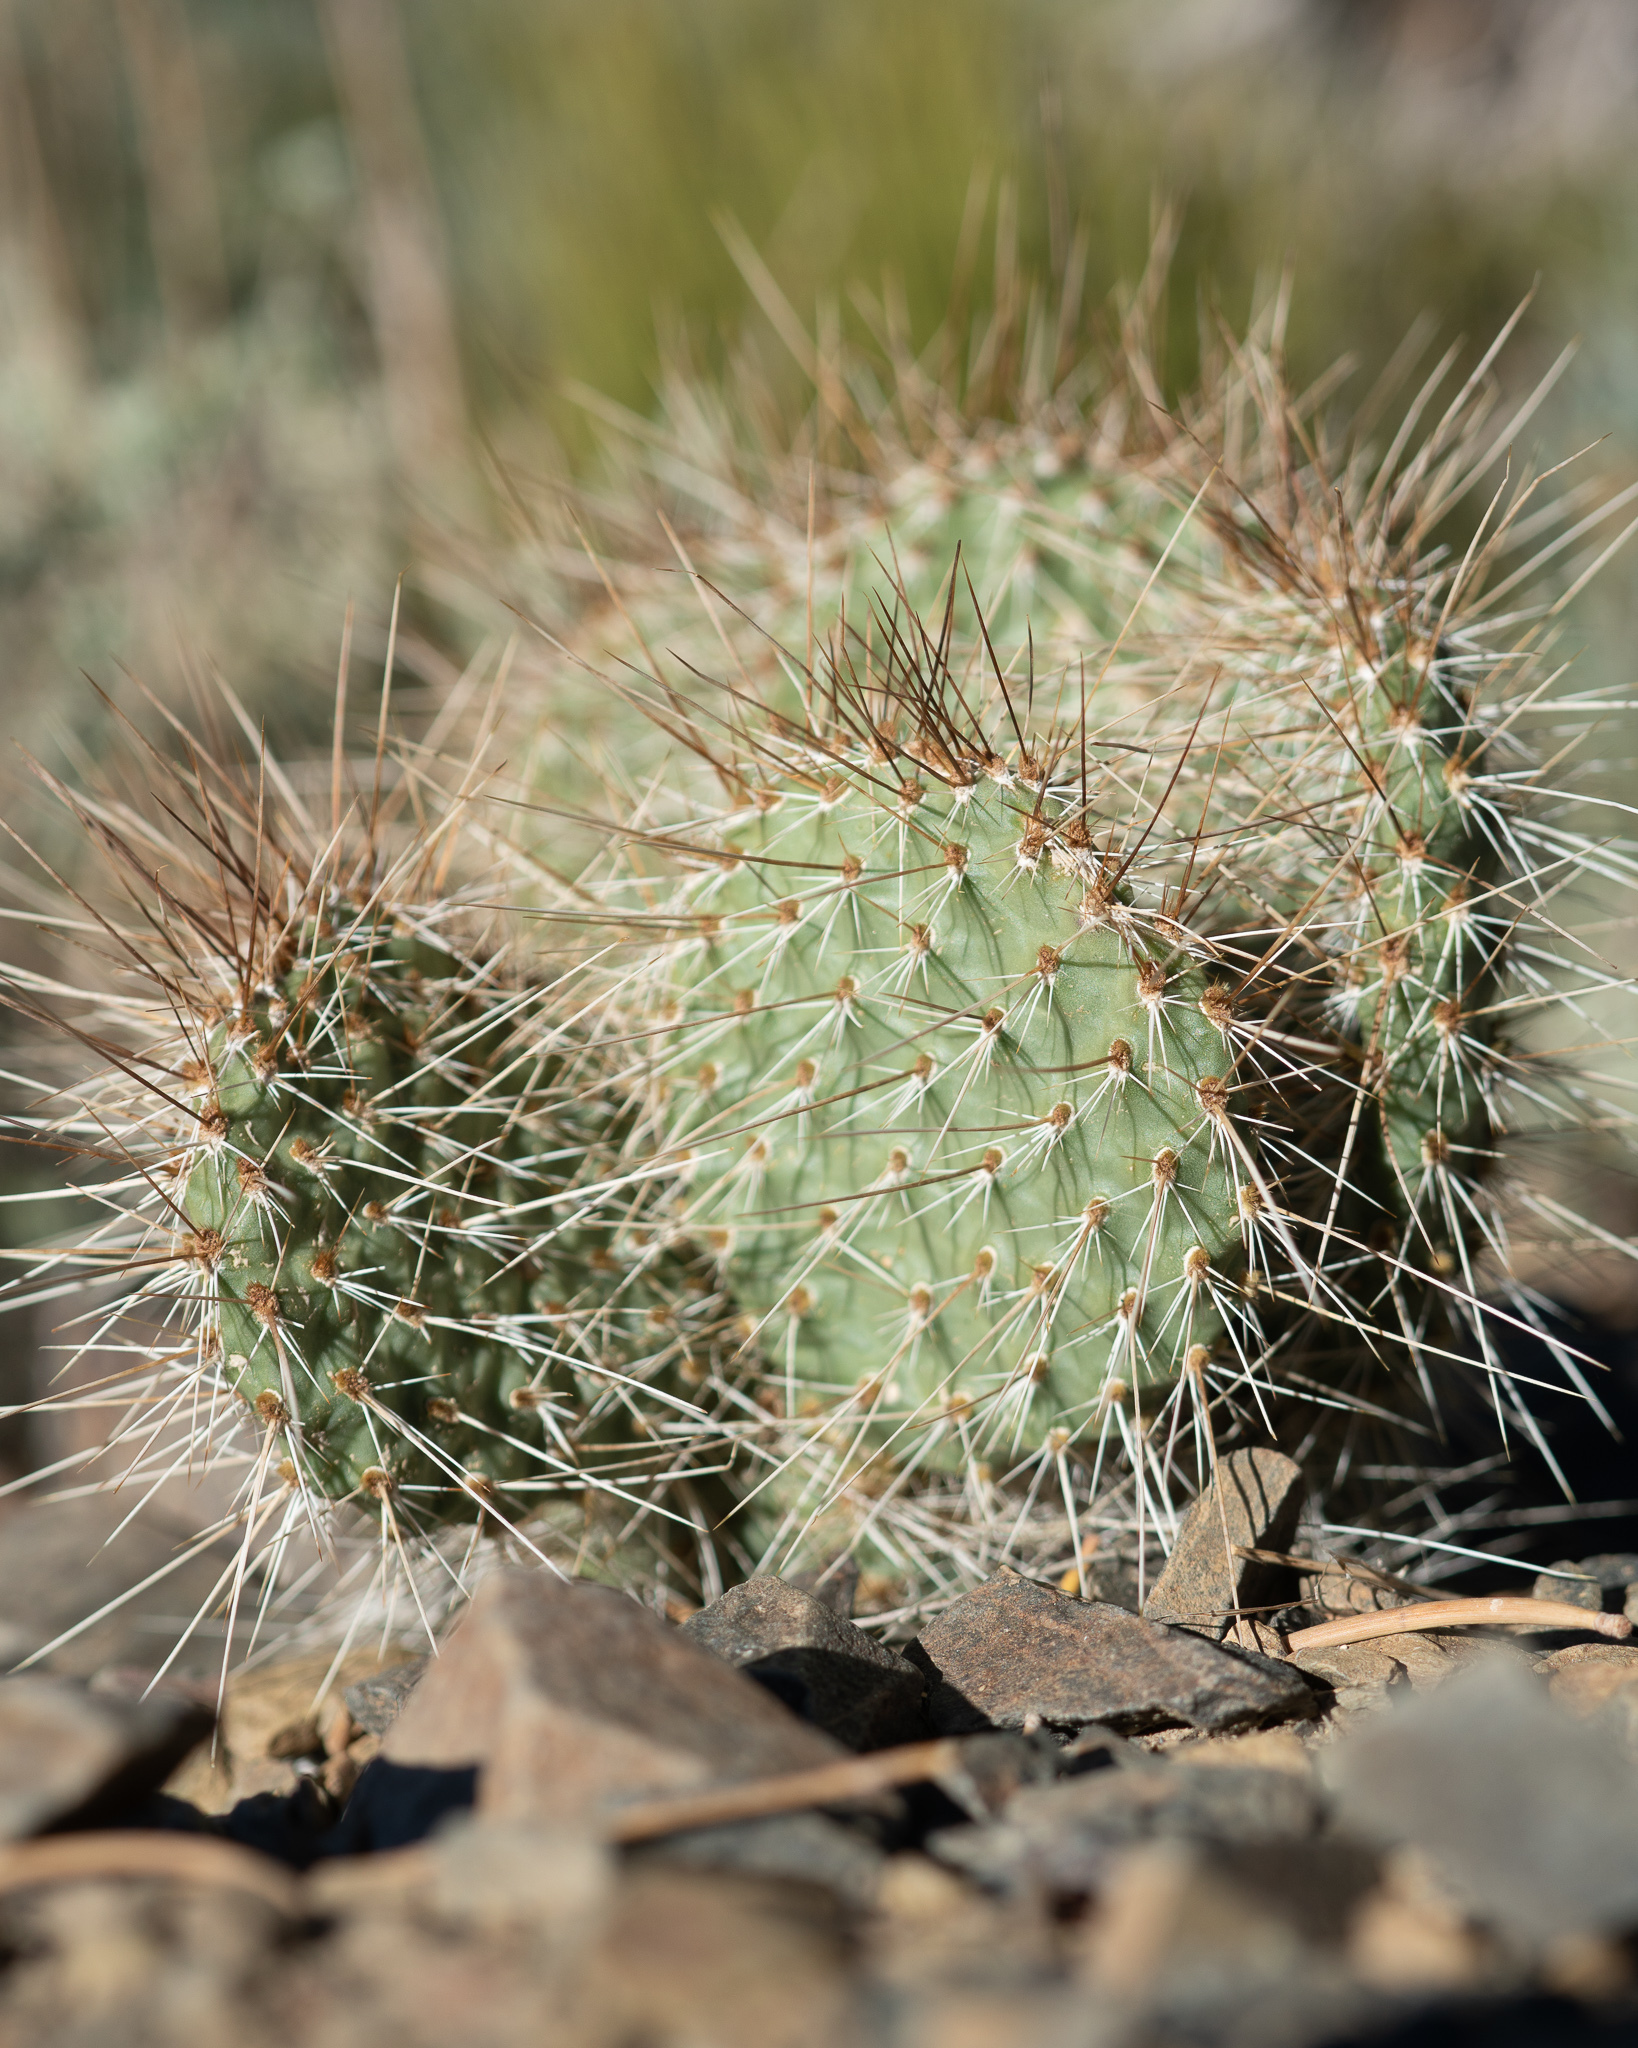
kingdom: Plantae
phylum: Tracheophyta
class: Magnoliopsida
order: Caryophyllales
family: Cactaceae
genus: Opuntia
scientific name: Opuntia polyacantha
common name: Plains prickly-pear
